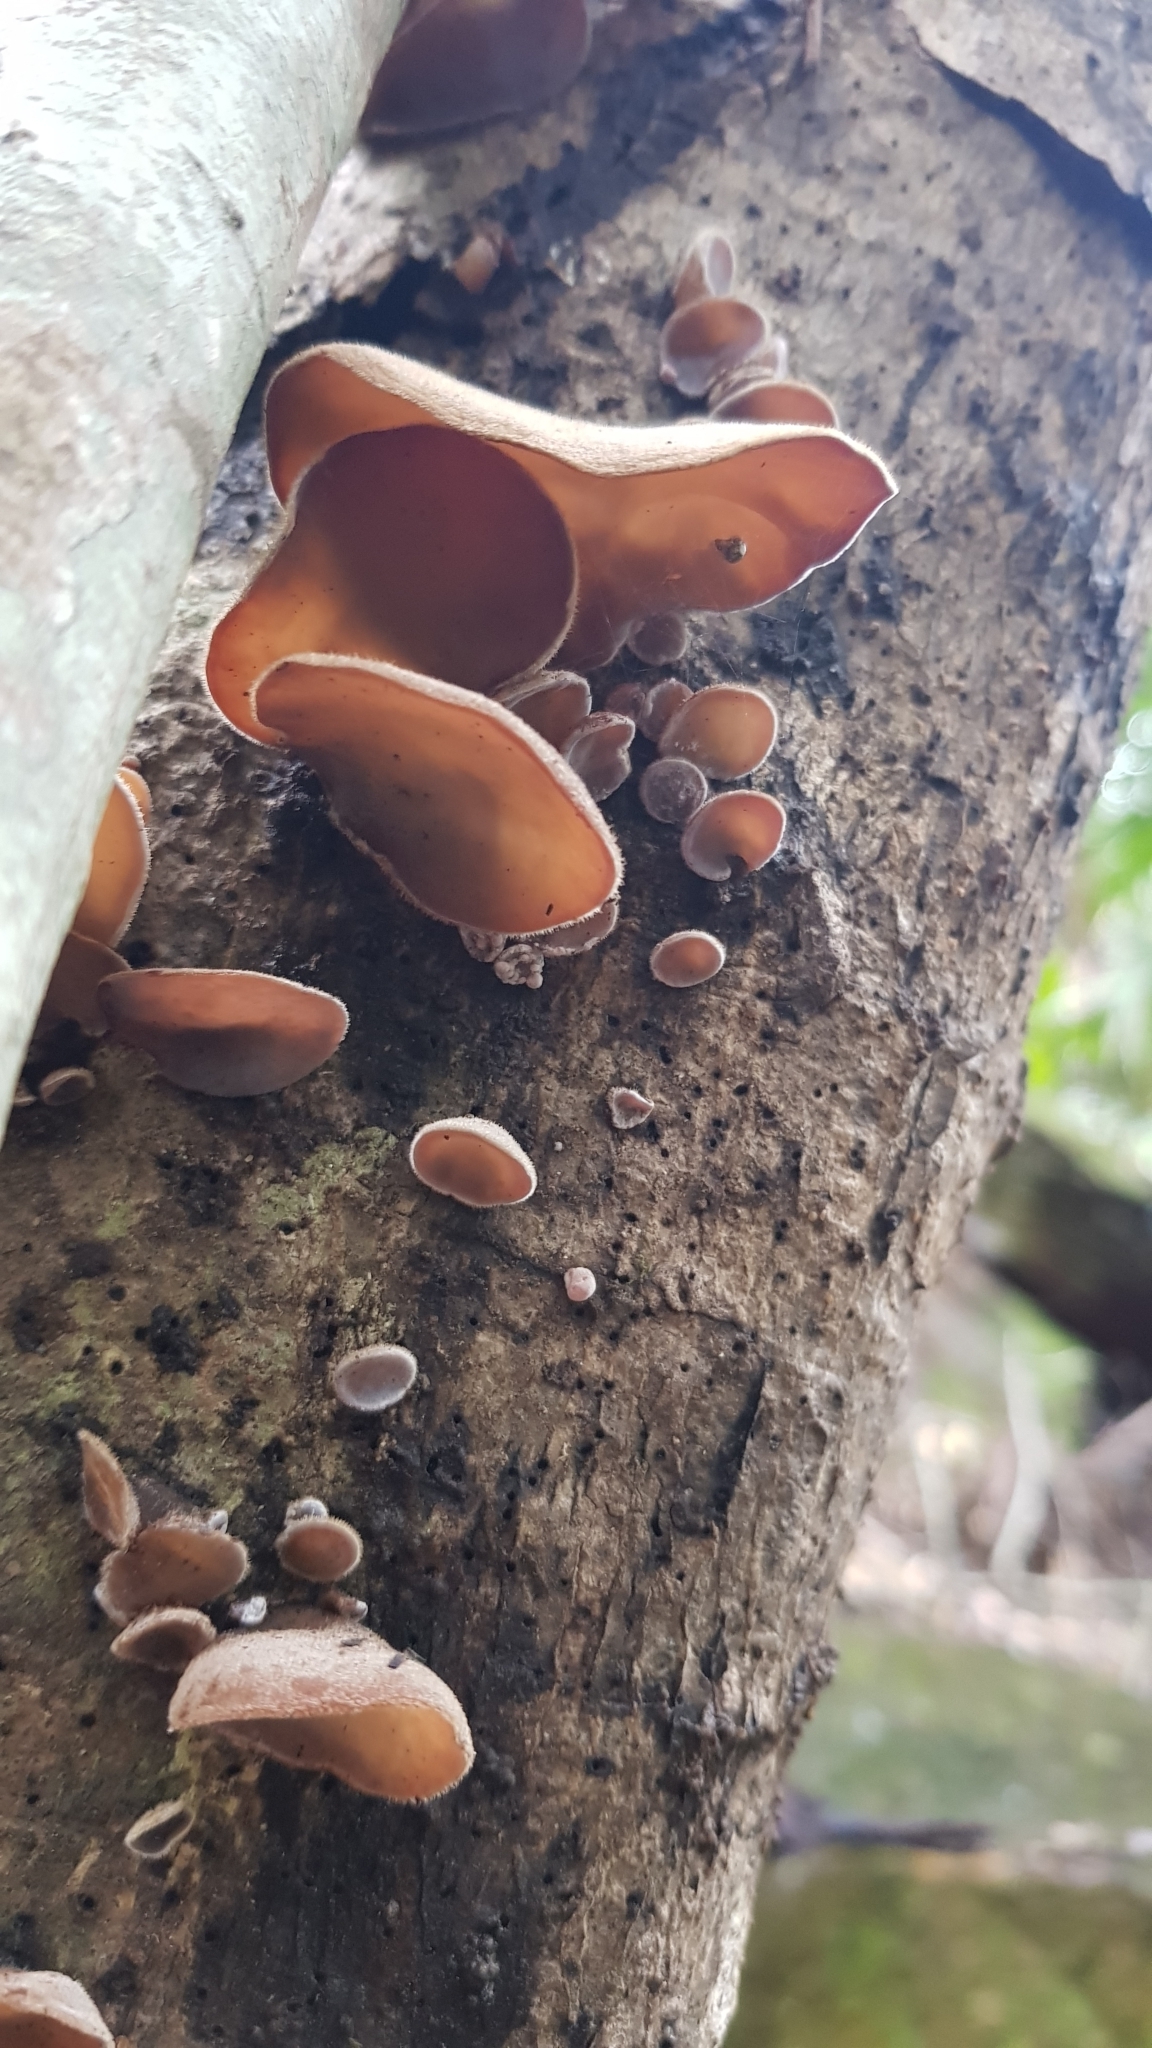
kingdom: Fungi
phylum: Basidiomycota
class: Agaricomycetes
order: Auriculariales
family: Auriculariaceae
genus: Auricularia
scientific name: Auricularia cornea
